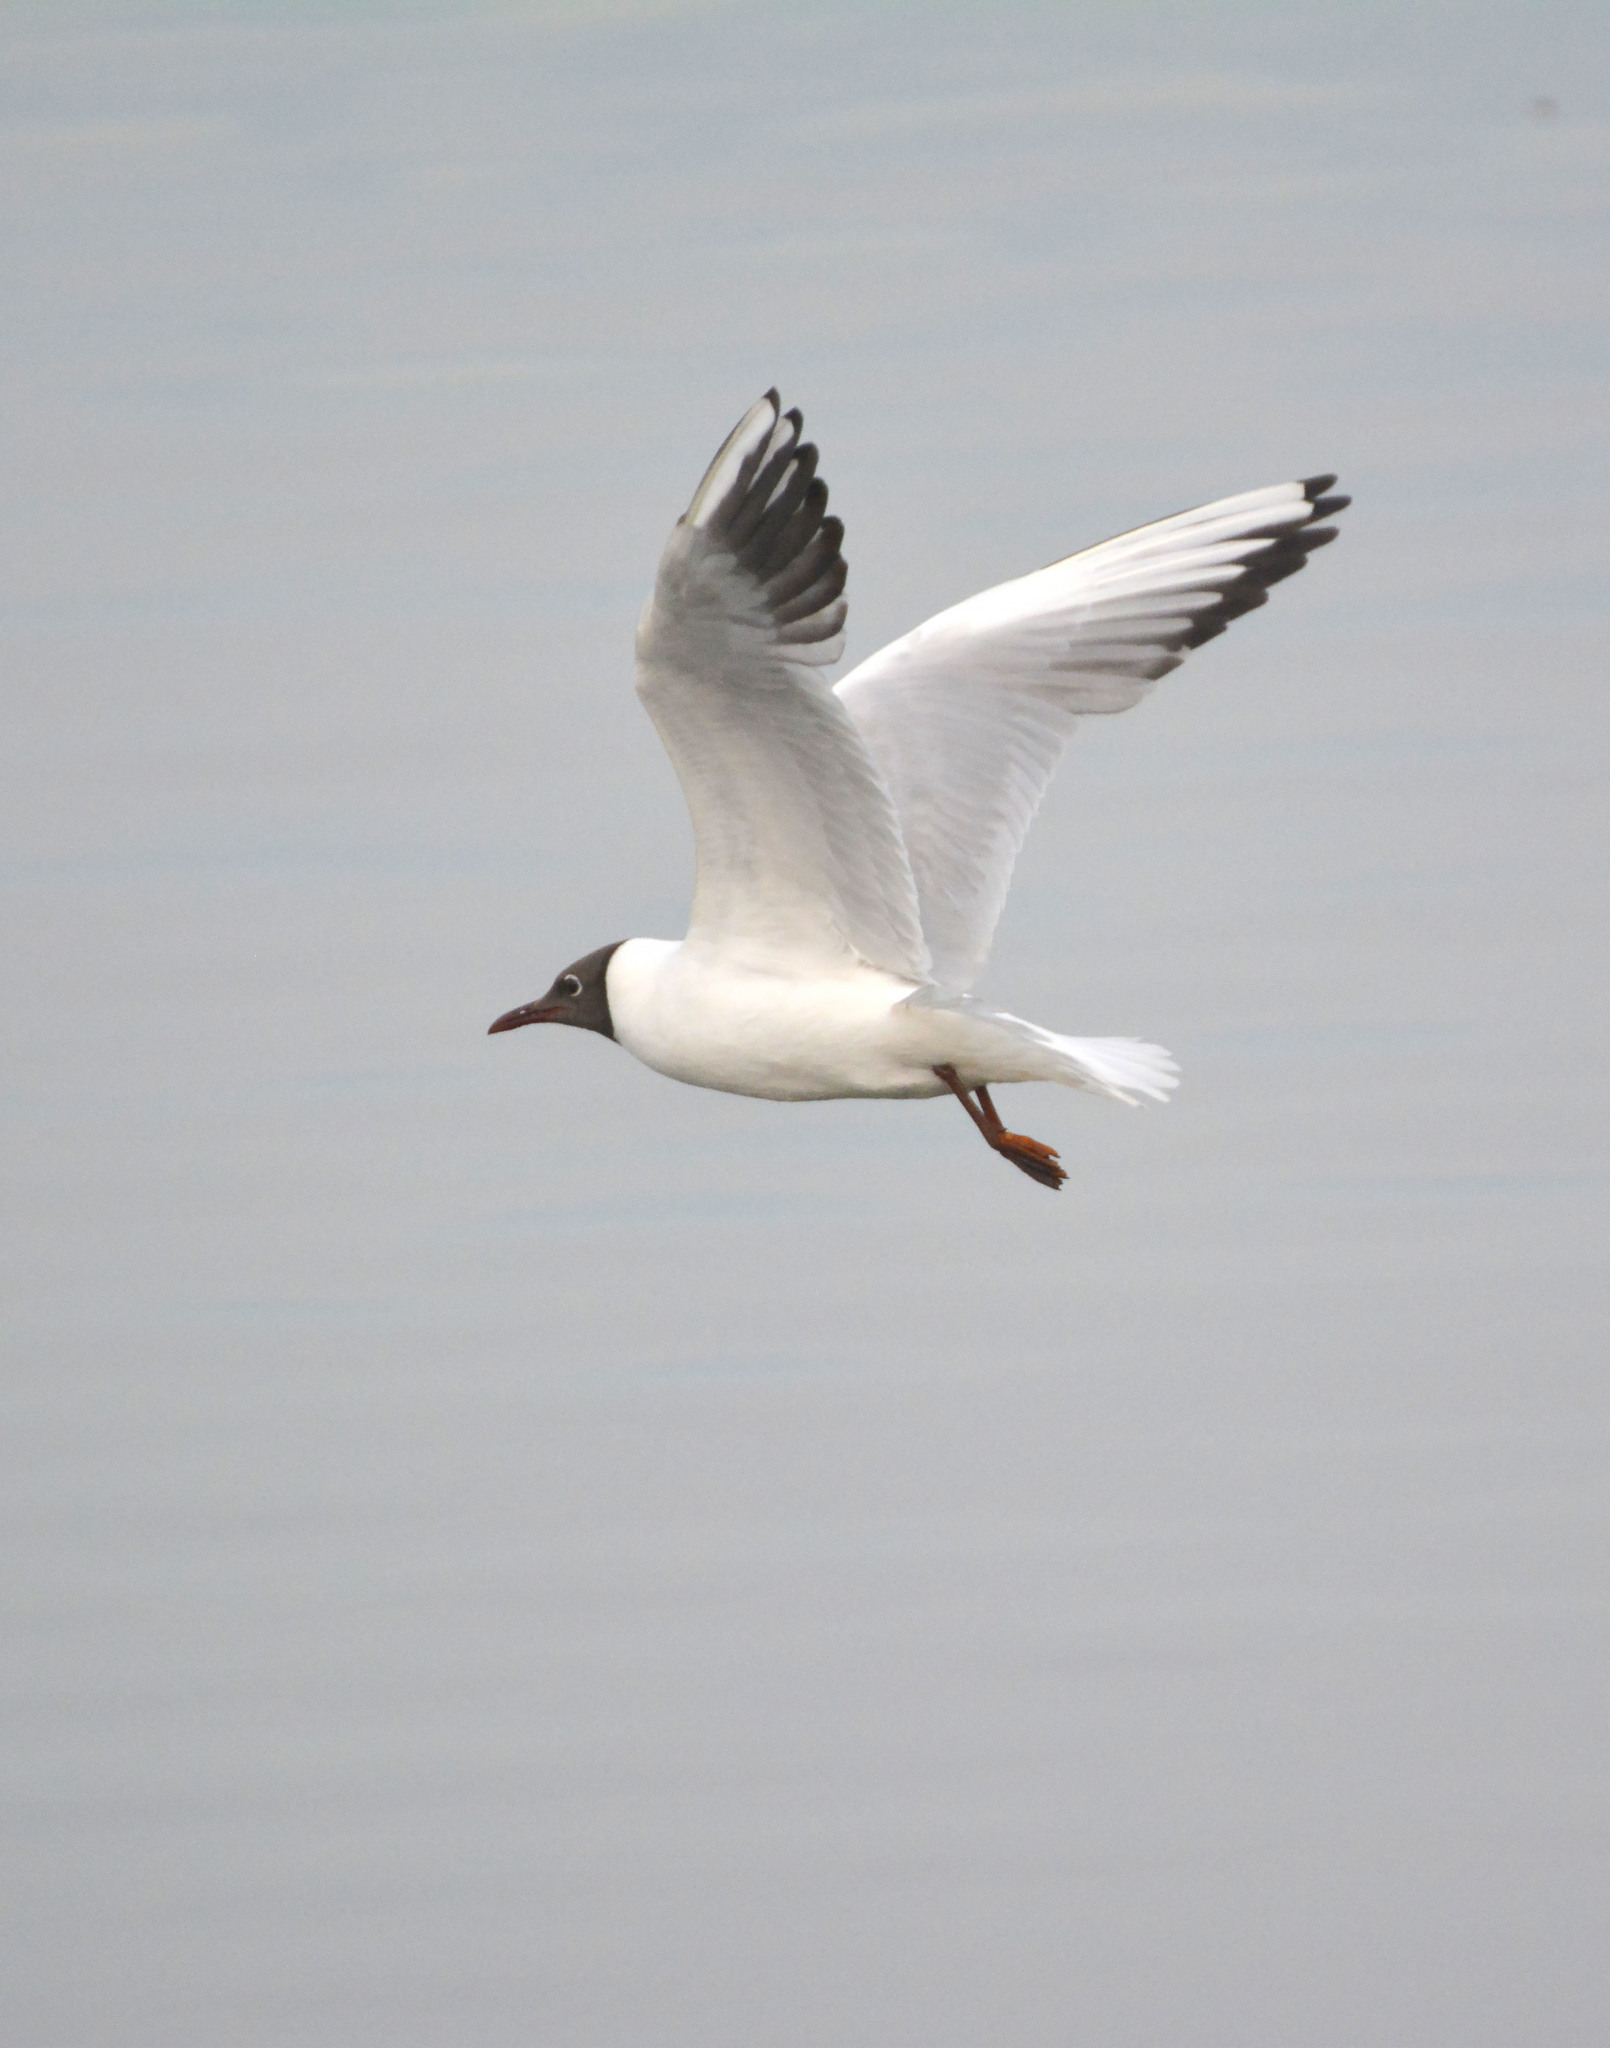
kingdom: Animalia
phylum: Chordata
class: Aves
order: Charadriiformes
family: Laridae
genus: Chroicocephalus
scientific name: Chroicocephalus ridibundus
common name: Black-headed gull
